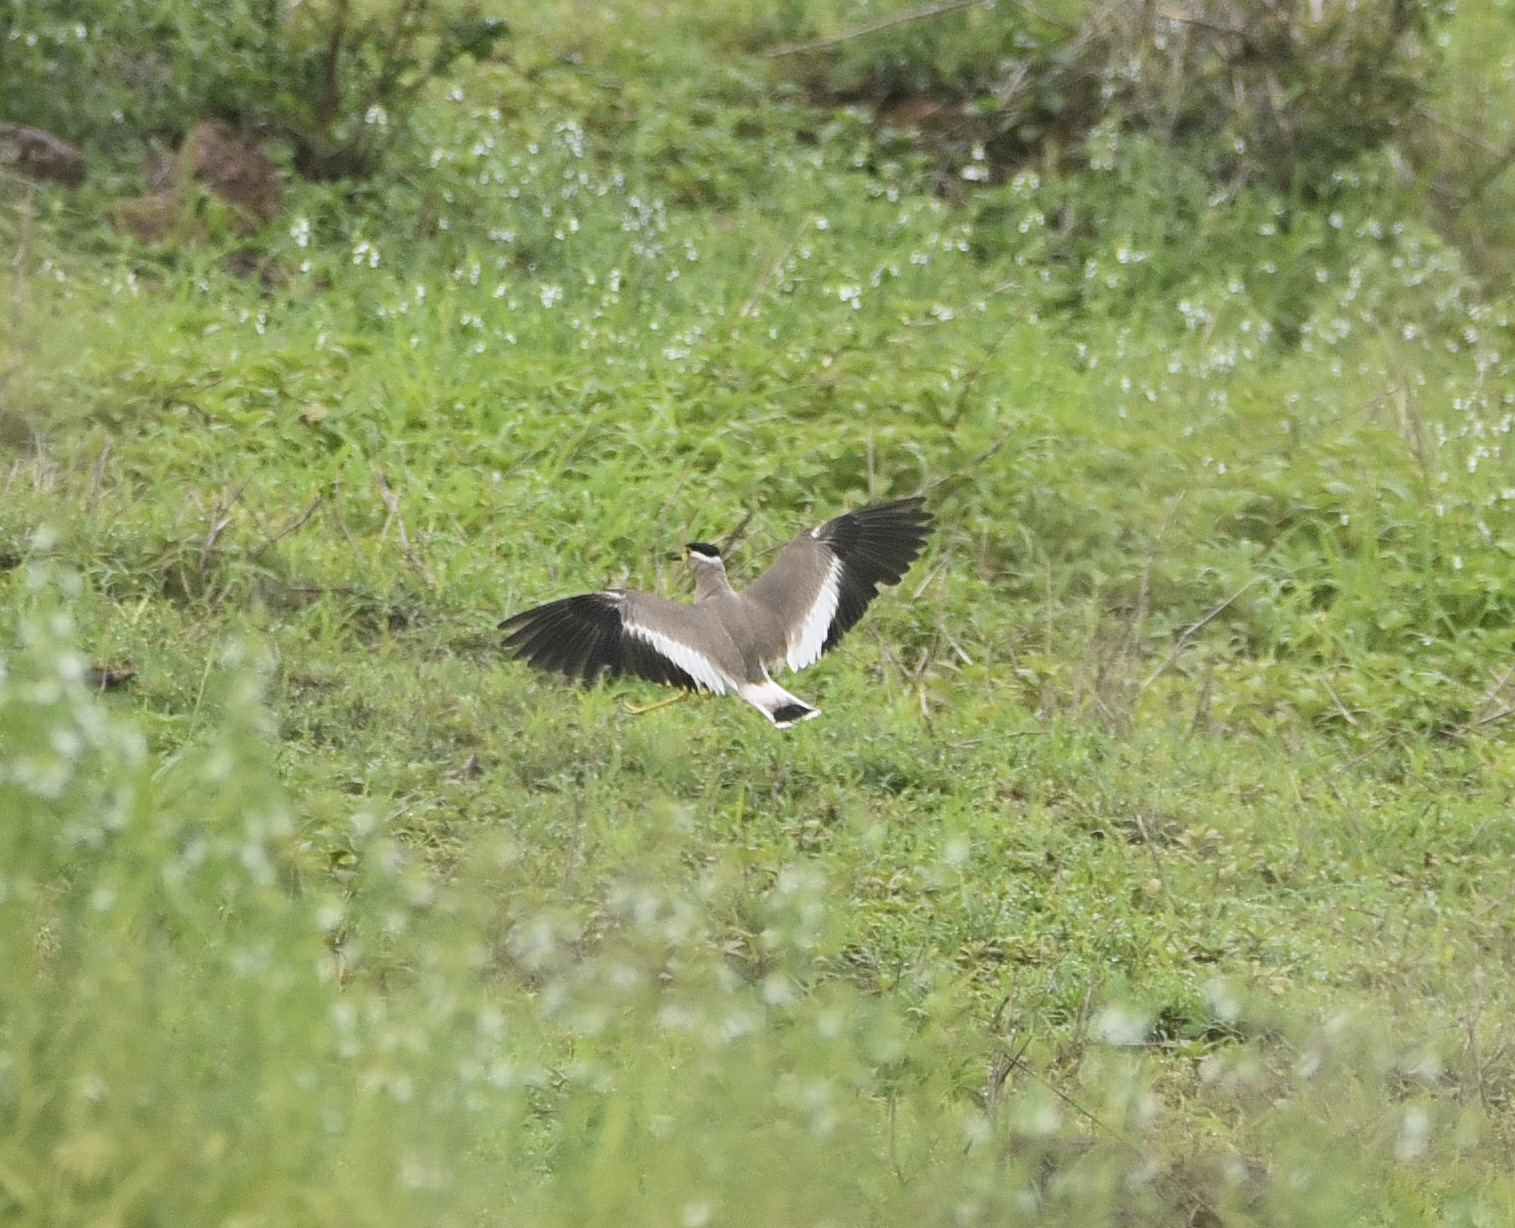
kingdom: Animalia
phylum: Chordata
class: Aves
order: Charadriiformes
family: Charadriidae
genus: Vanellus
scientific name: Vanellus malabaricus
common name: Yellow-wattled lapwing
